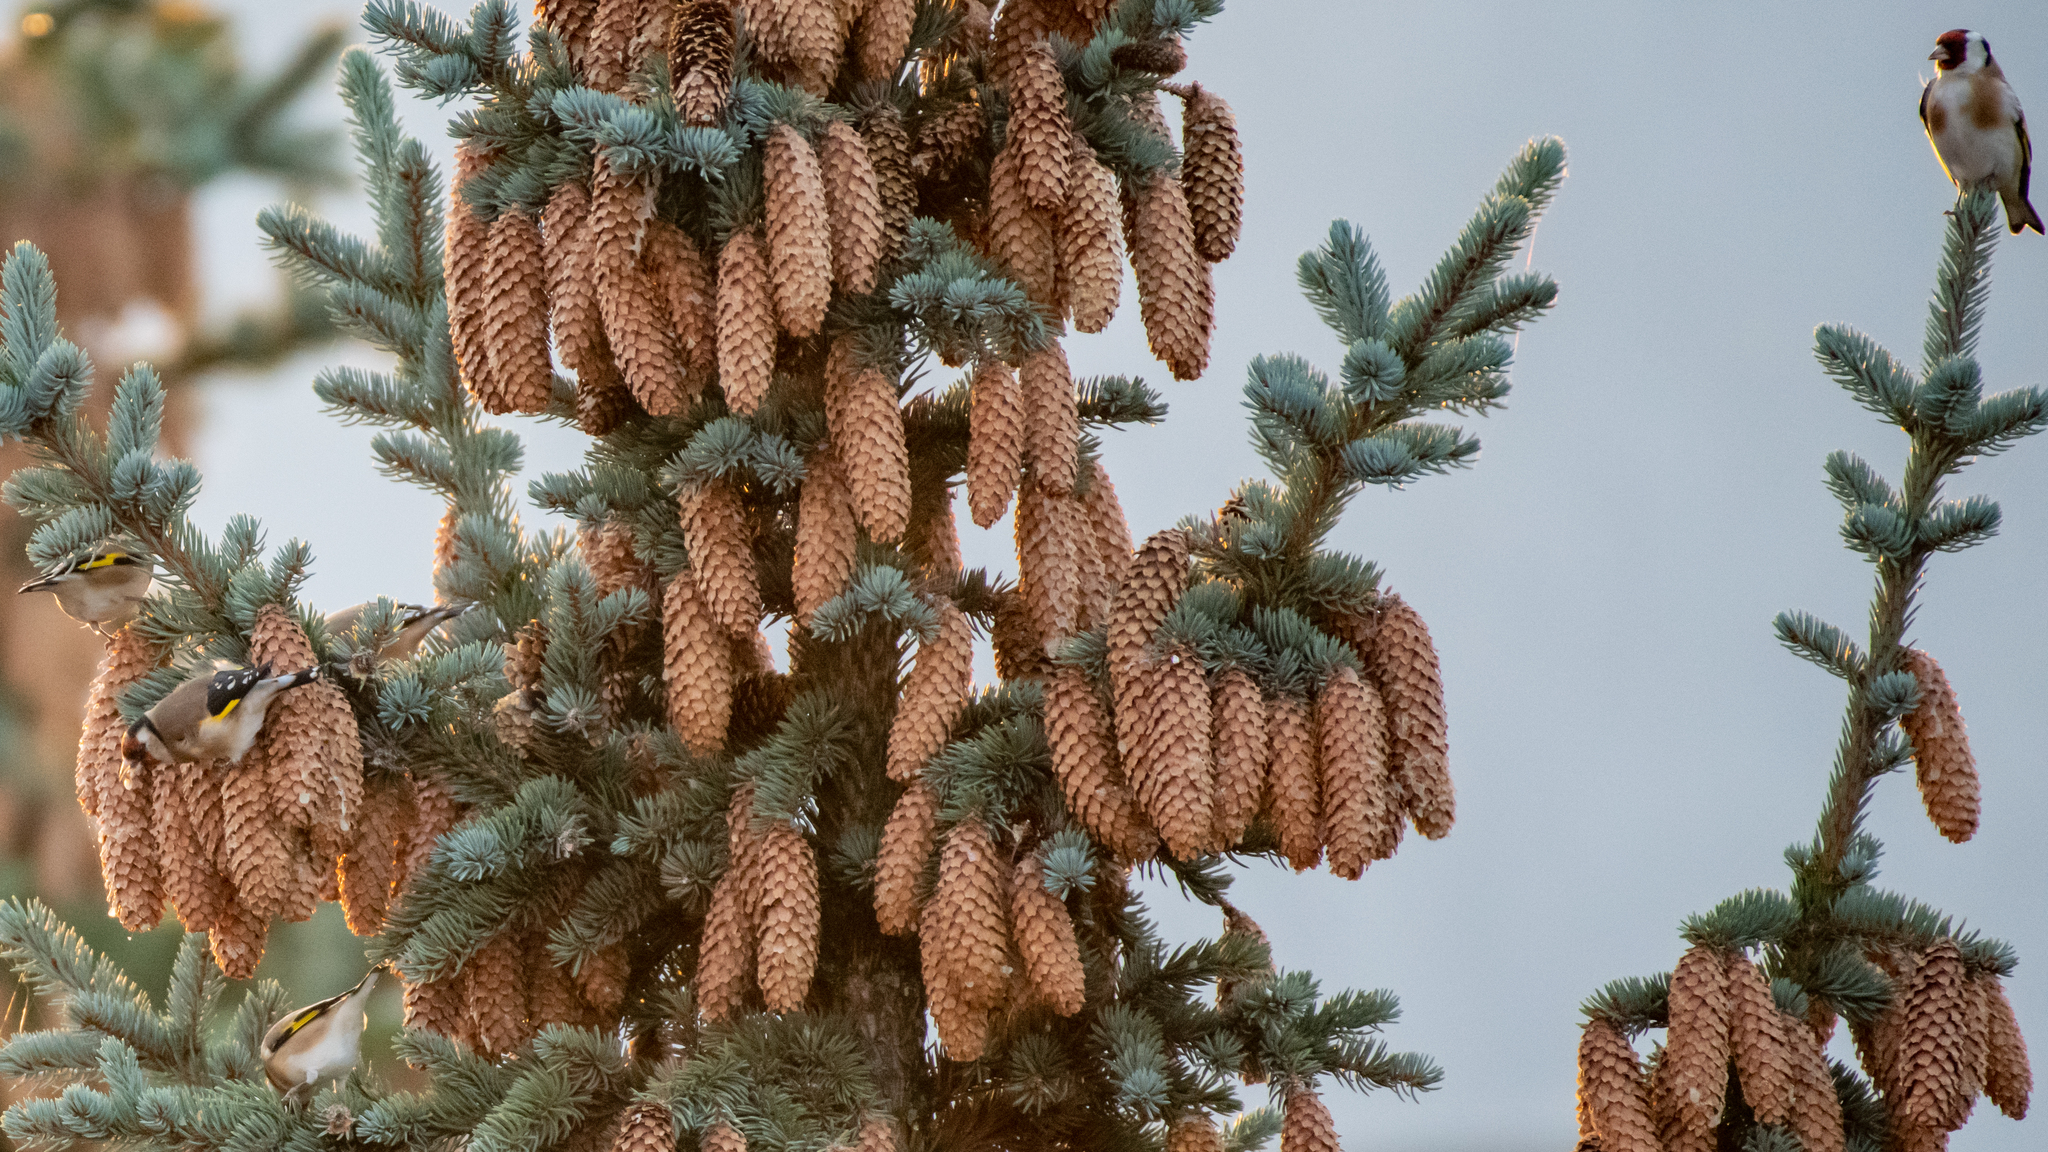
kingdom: Animalia
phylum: Chordata
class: Aves
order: Passeriformes
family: Fringillidae
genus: Carduelis
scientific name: Carduelis carduelis
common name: European goldfinch
